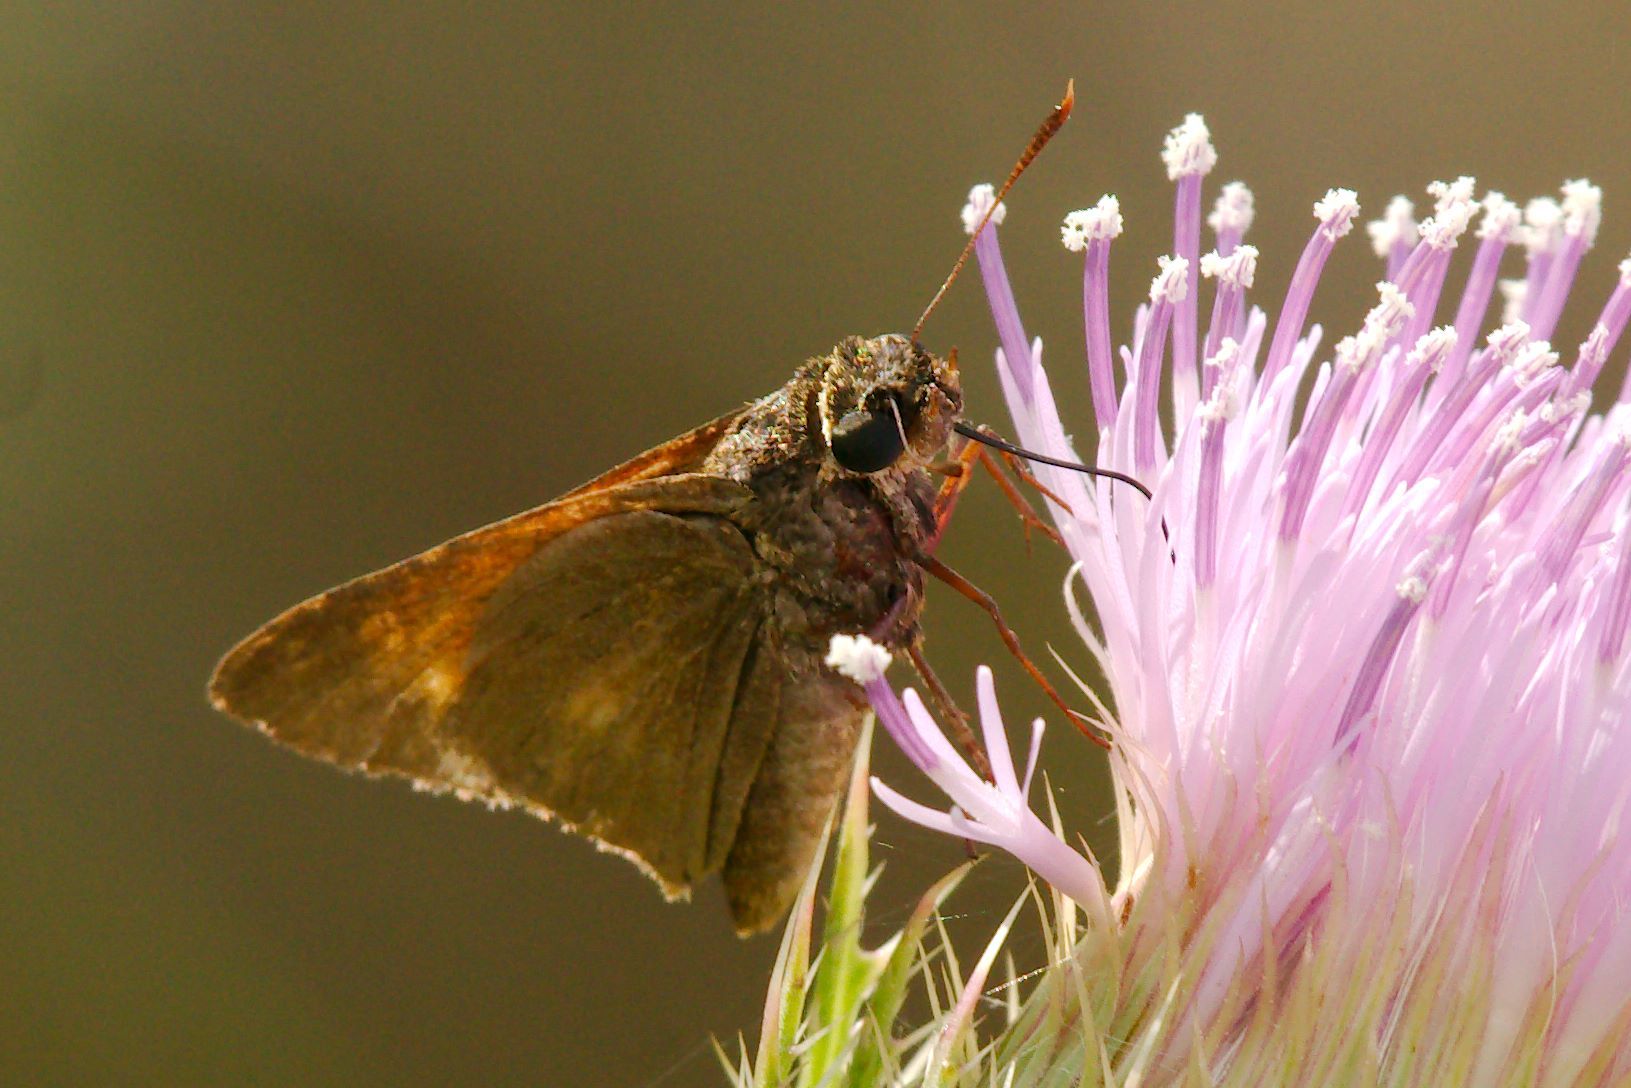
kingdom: Animalia
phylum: Arthropoda
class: Insecta
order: Lepidoptera
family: Hesperiidae
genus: Euphyes
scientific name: Euphyes pilatka
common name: Palatka skipper
